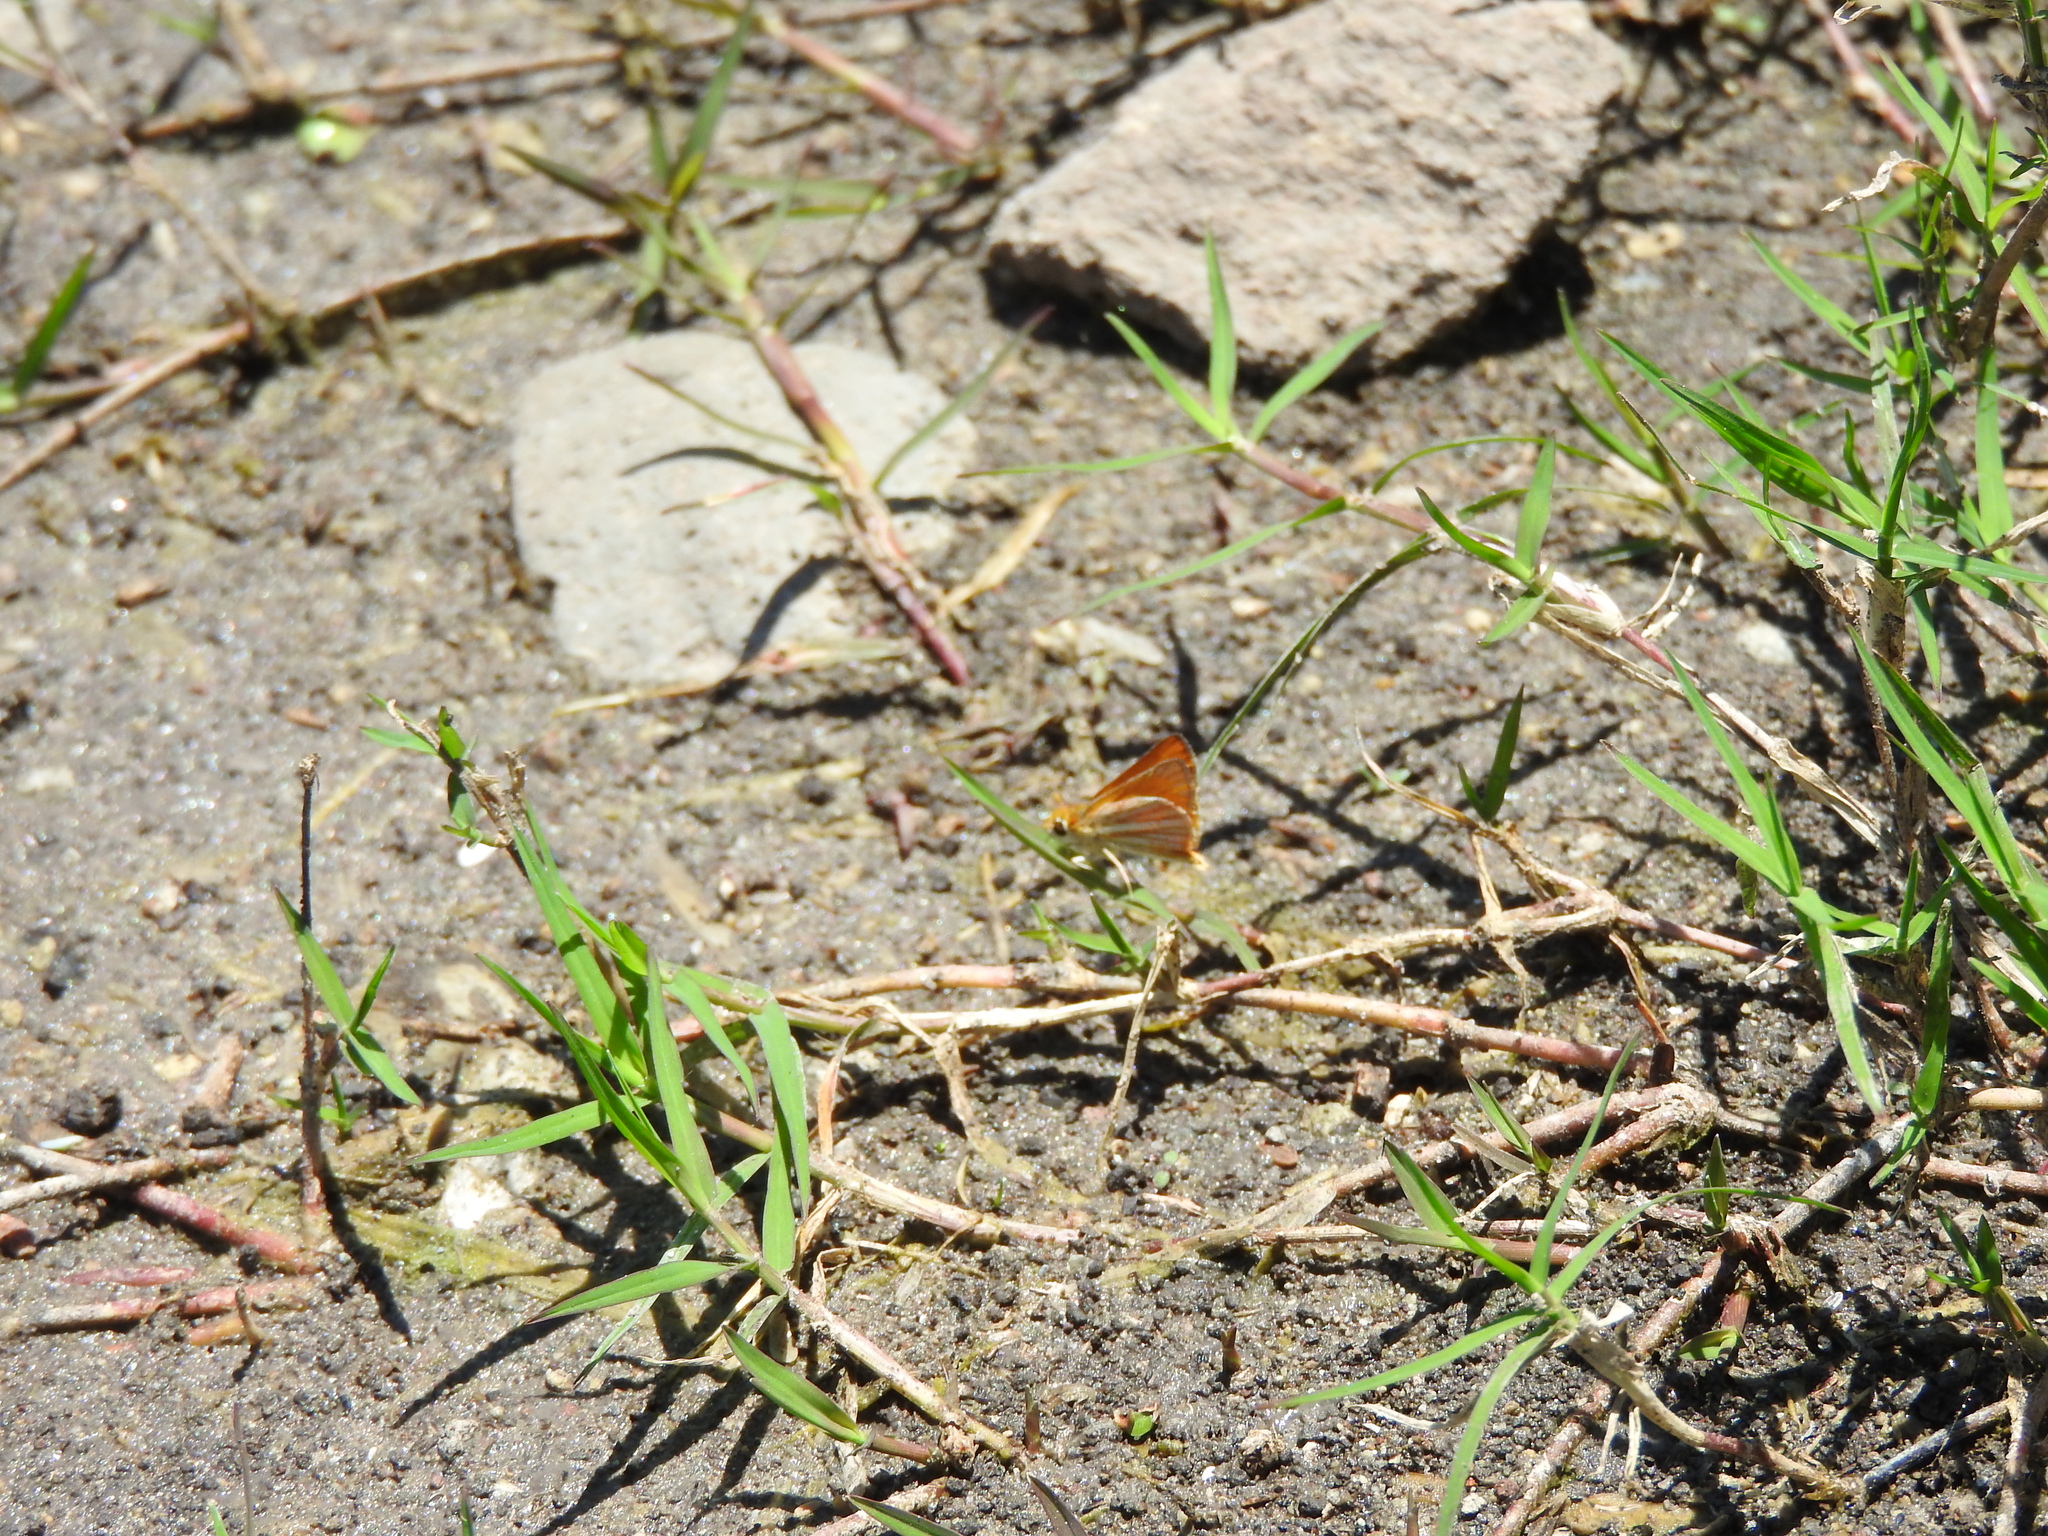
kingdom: Animalia
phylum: Arthropoda
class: Insecta
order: Lepidoptera
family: Hesperiidae
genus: Copaeodes
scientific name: Copaeodes minima
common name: Southern skipperling
